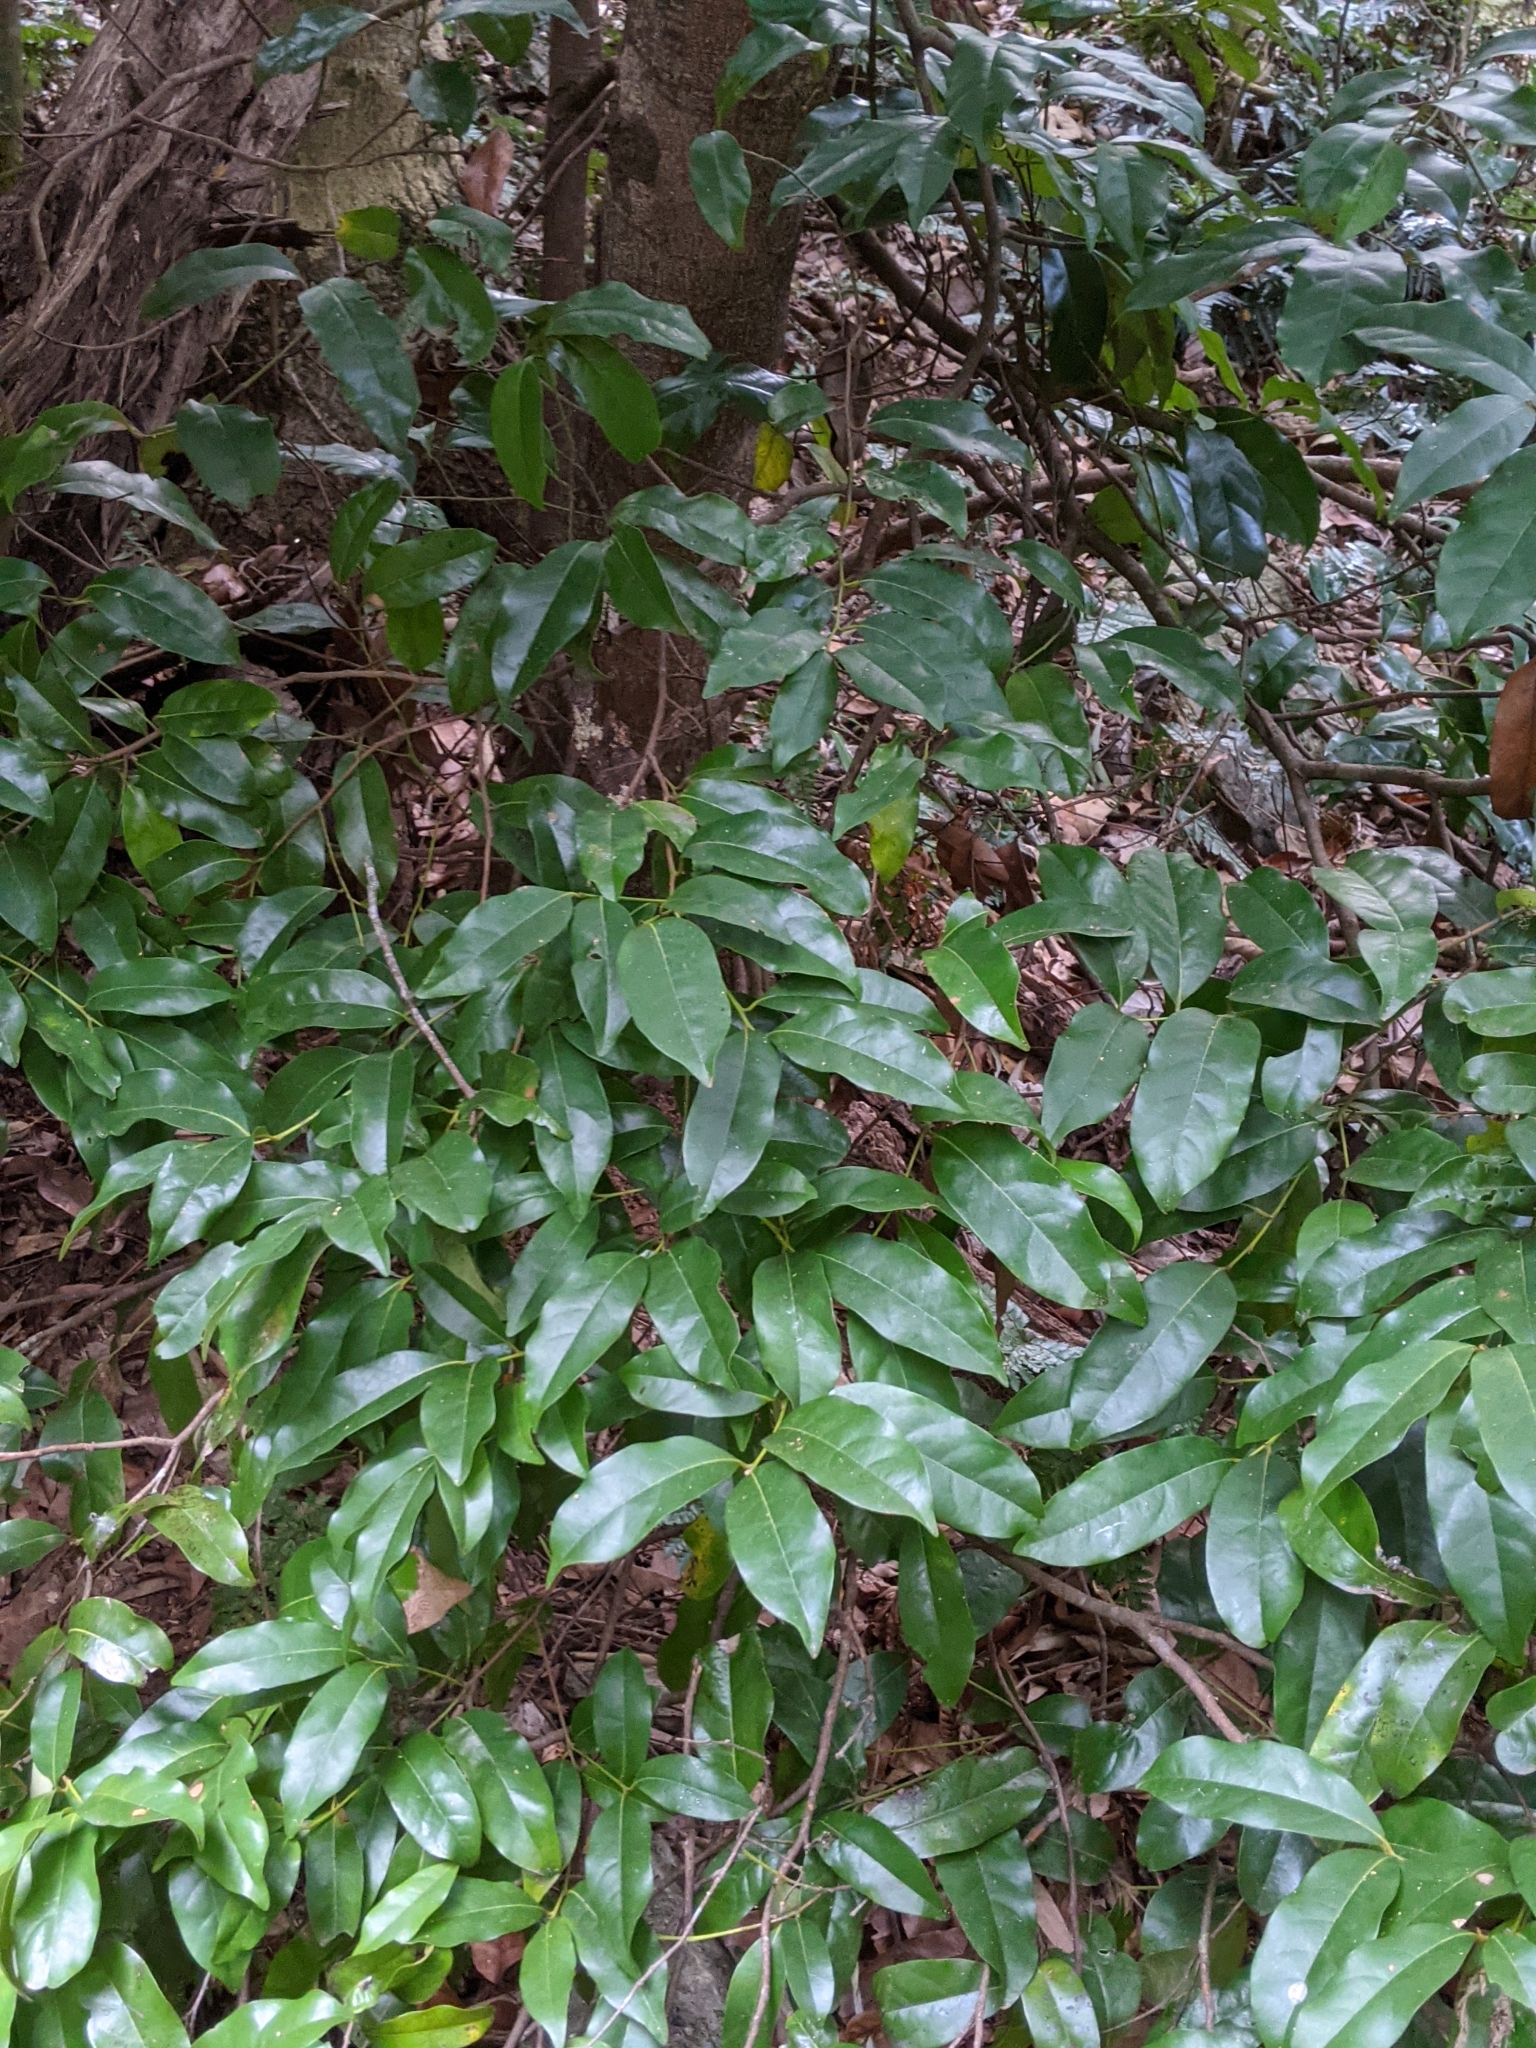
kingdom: Plantae
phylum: Tracheophyta
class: Magnoliopsida
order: Laurales
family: Lauraceae
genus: Cryptocarya
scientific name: Cryptocarya sclerophylla
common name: Totempole
